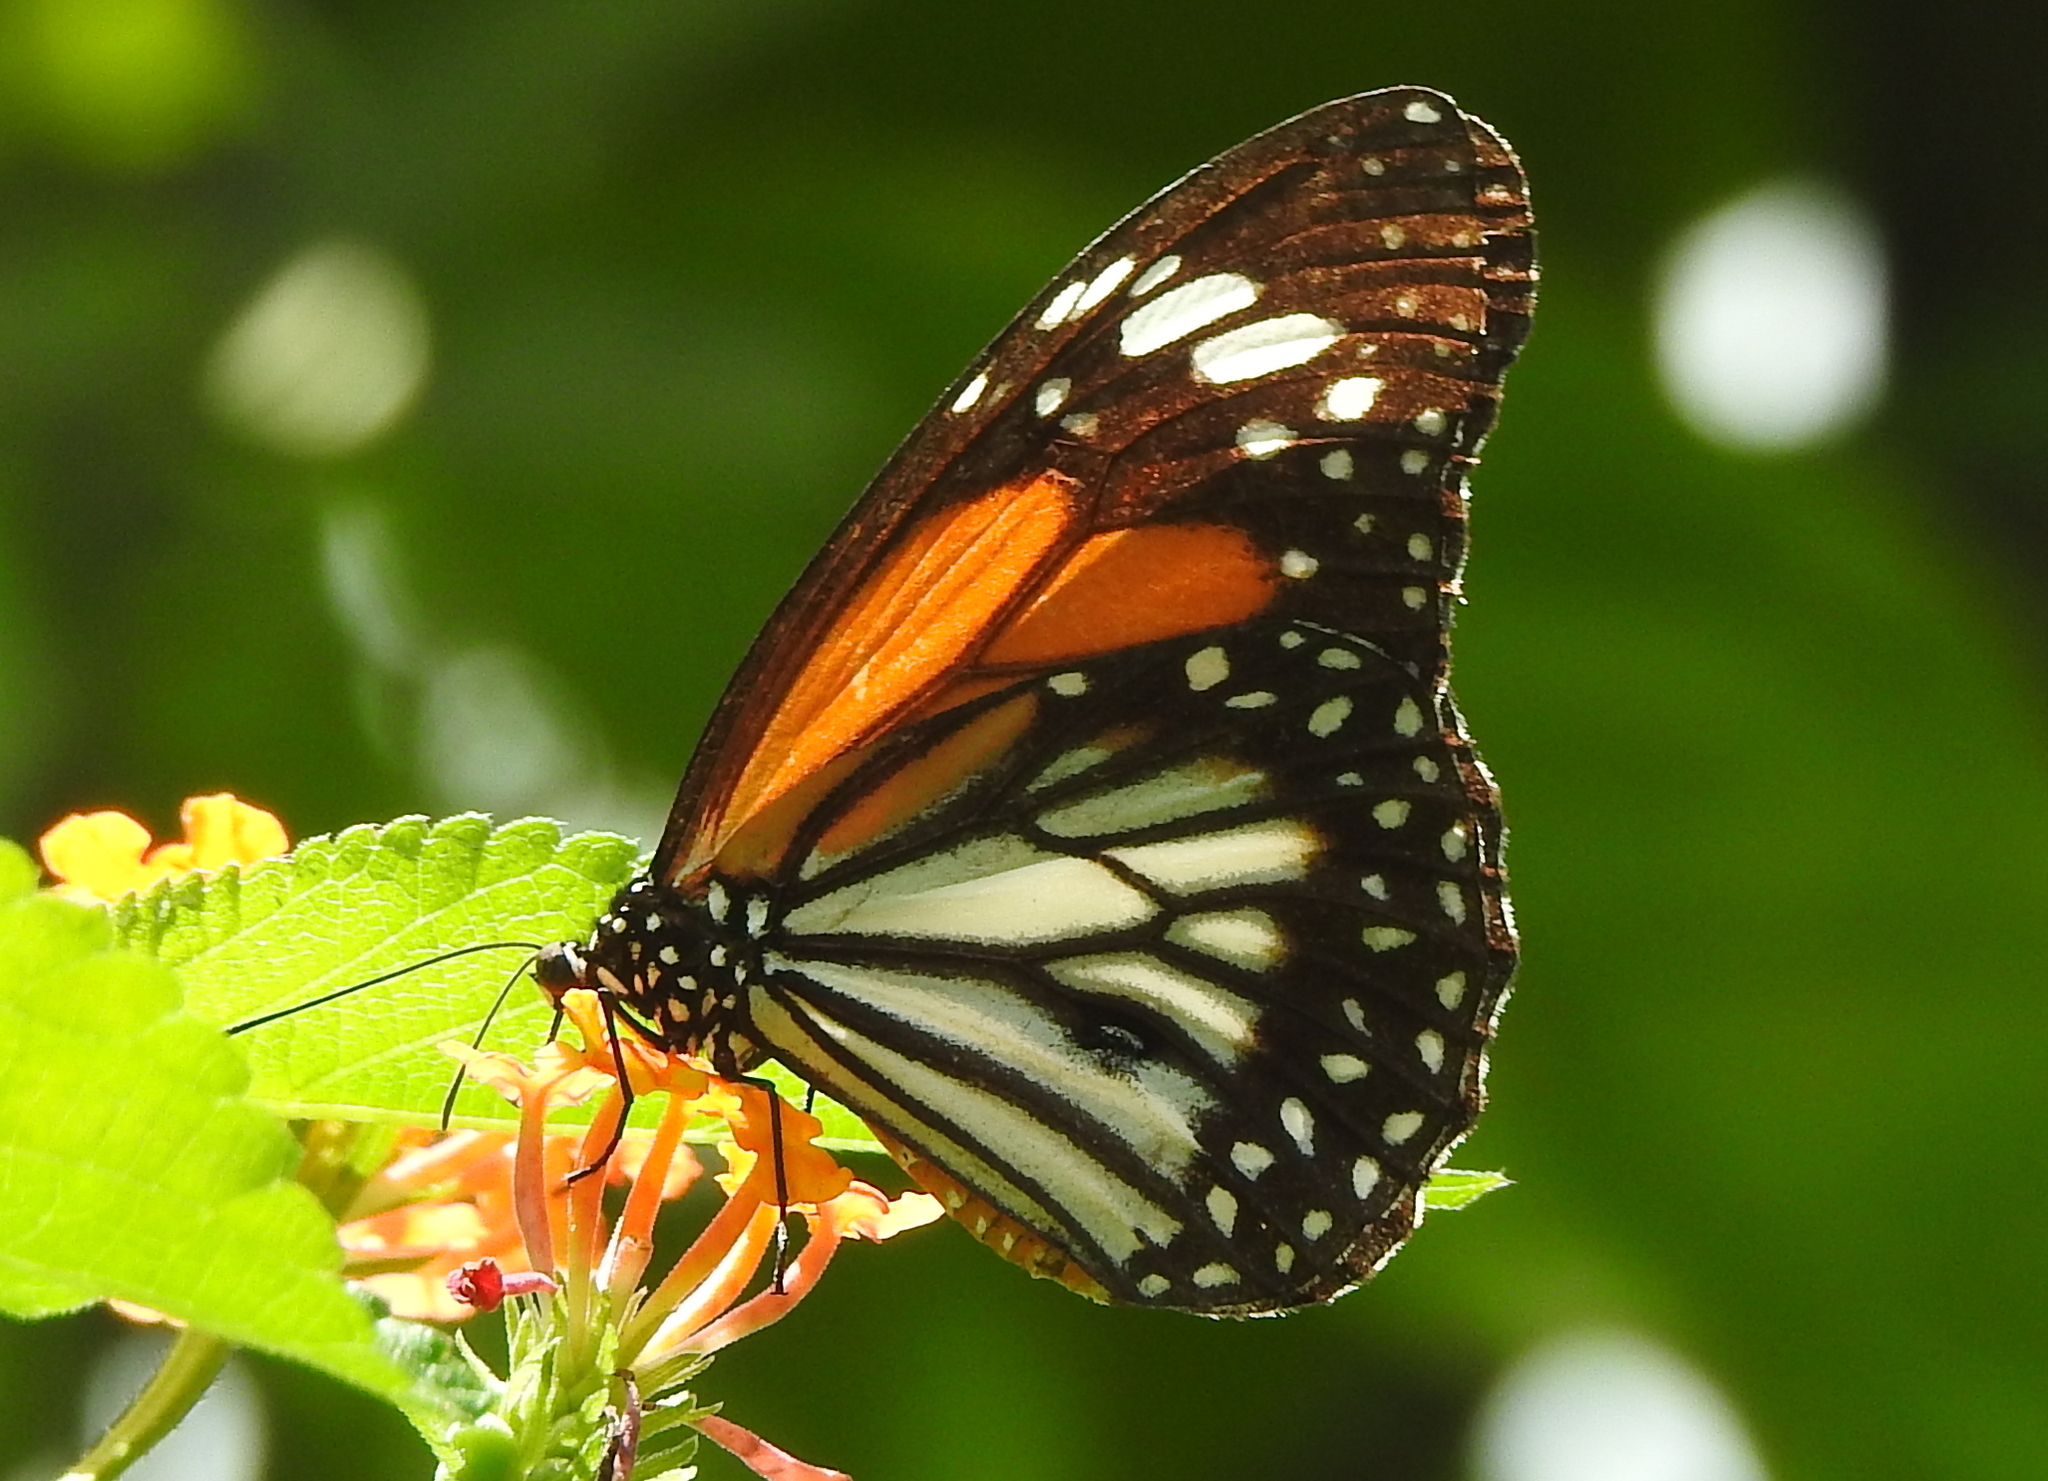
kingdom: Animalia
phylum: Arthropoda
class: Insecta
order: Lepidoptera
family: Nymphalidae
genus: Danaus
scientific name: Danaus melanippus
